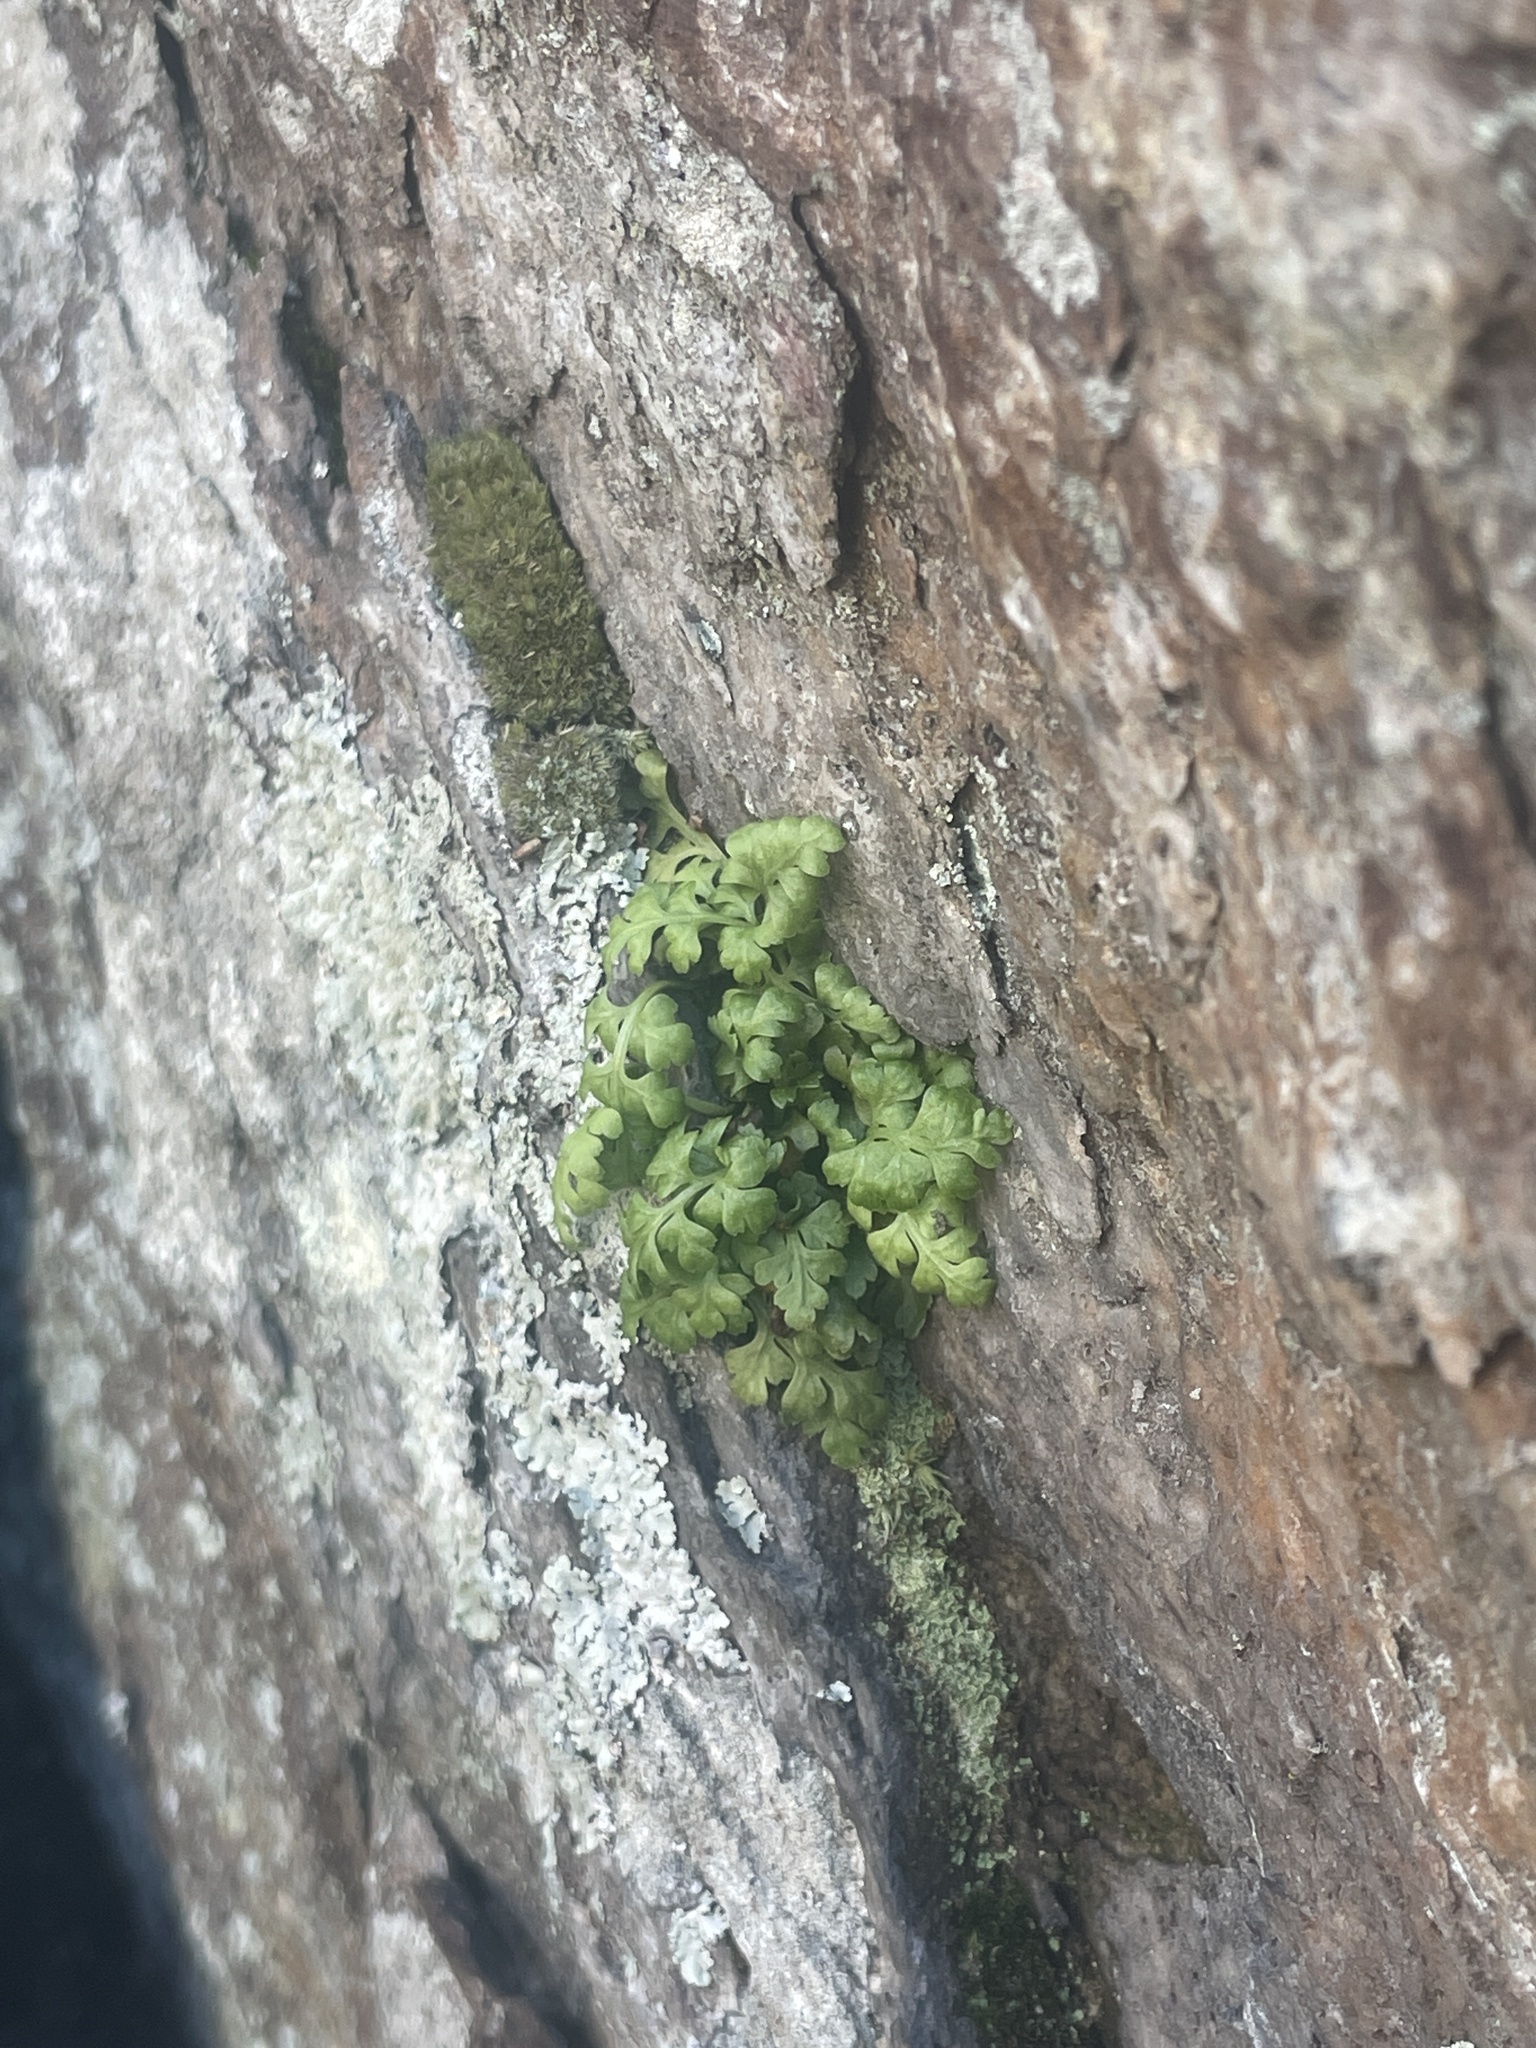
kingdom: Plantae
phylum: Tracheophyta
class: Polypodiopsida
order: Polypodiales
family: Aspleniaceae
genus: Asplenium
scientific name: Asplenium montanum
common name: Mountain spleenwort
